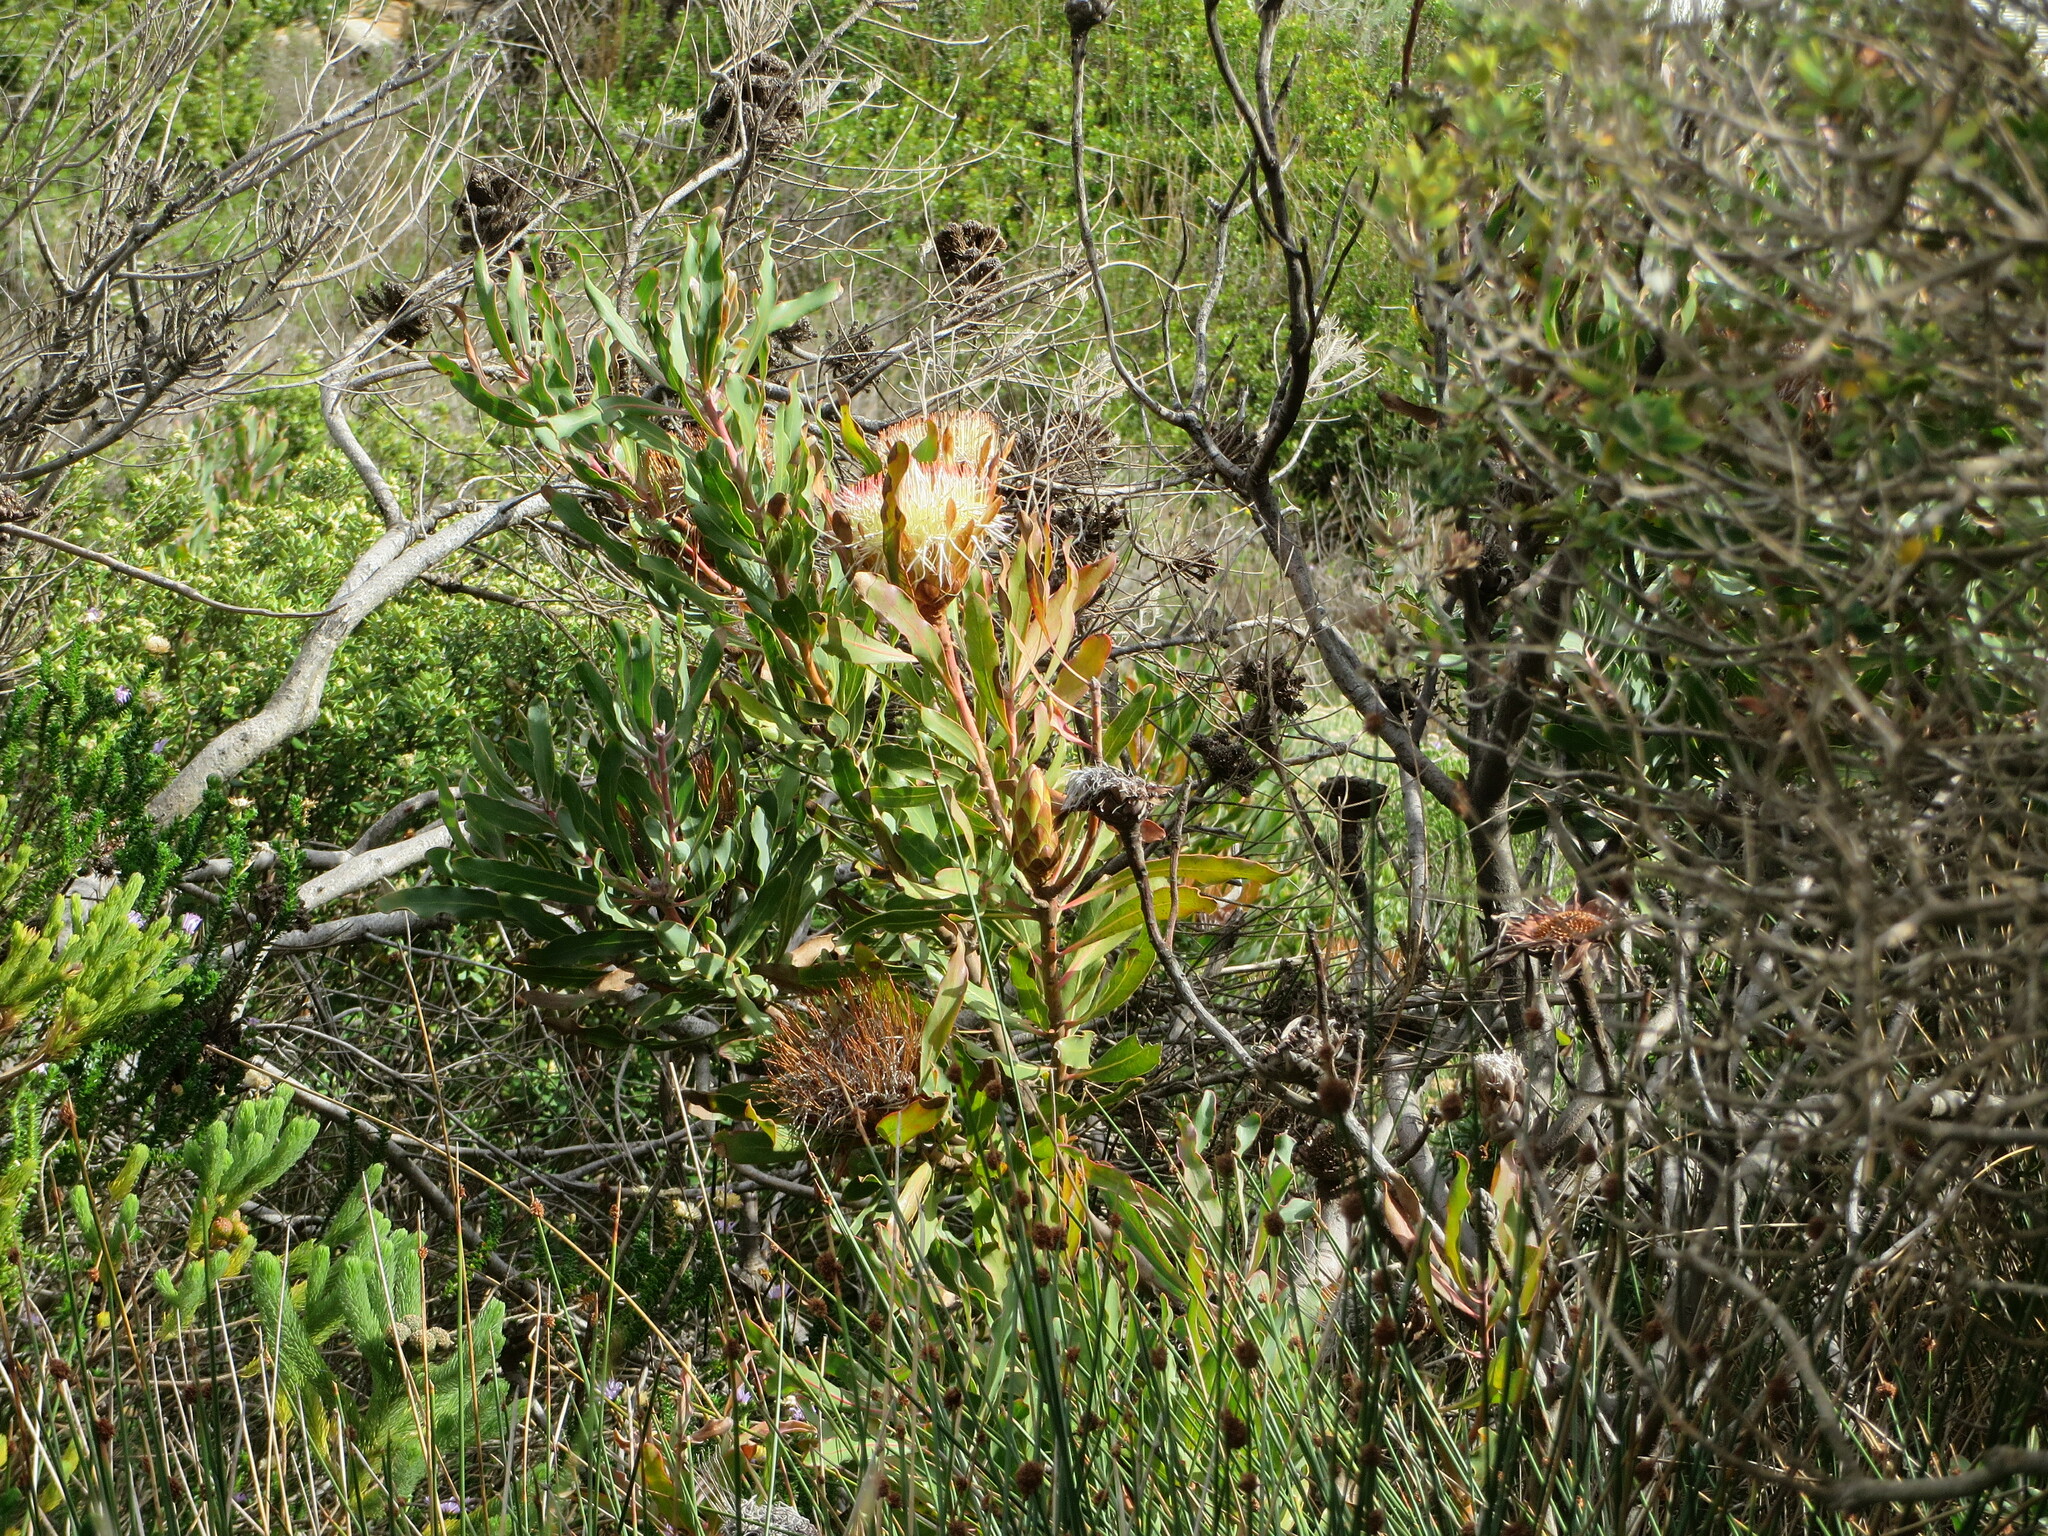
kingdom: Plantae
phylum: Tracheophyta
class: Magnoliopsida
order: Proteales
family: Proteaceae
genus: Protea
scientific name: Protea susannae
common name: Foetid-leaf sugarbush
